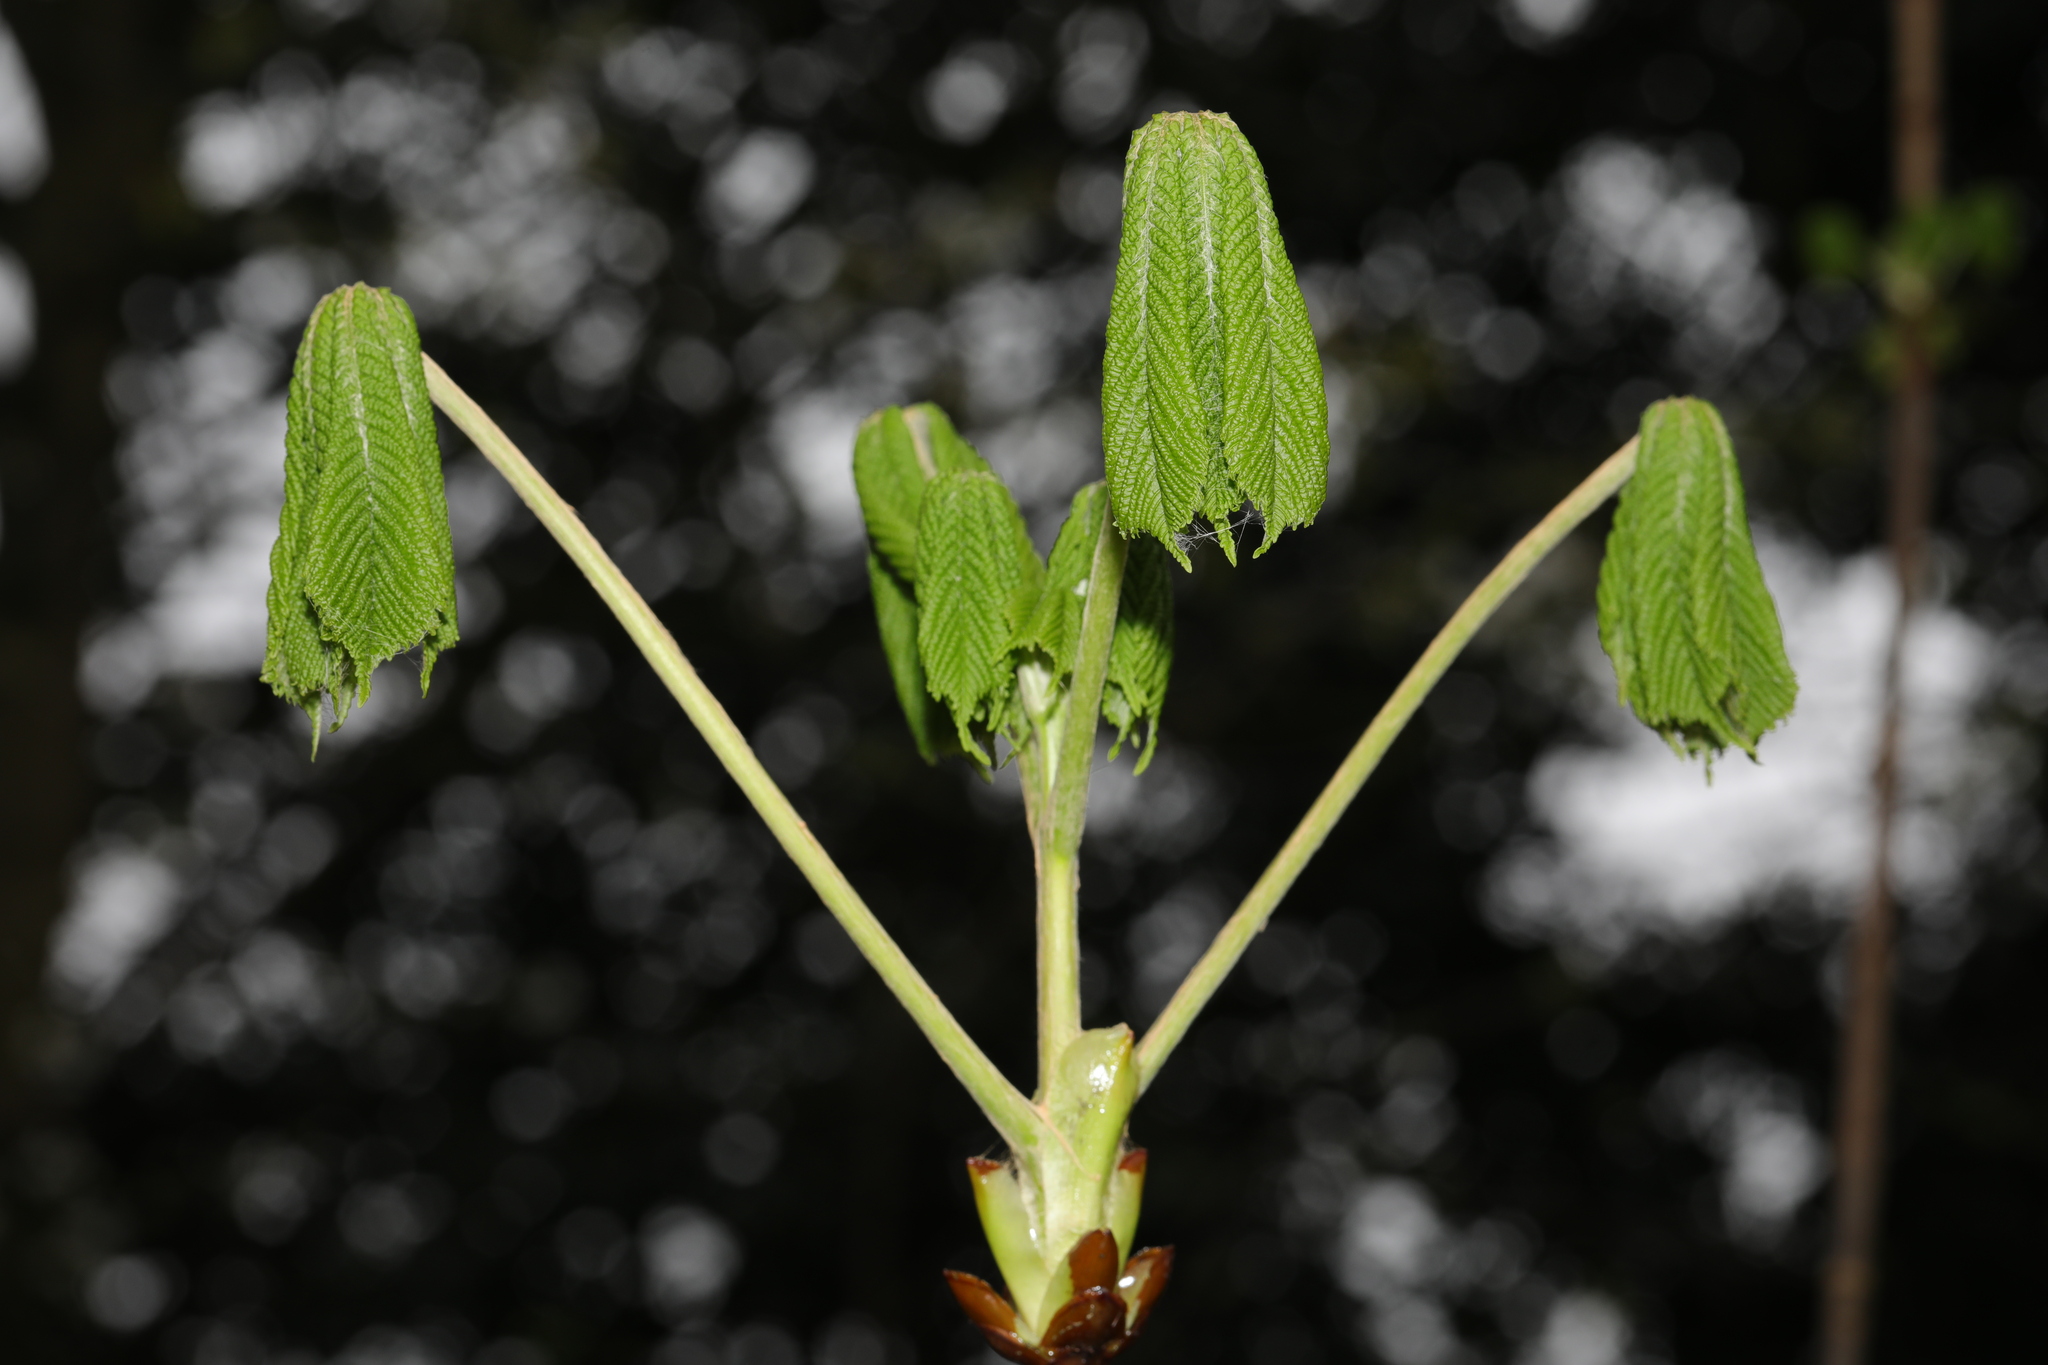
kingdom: Plantae
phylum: Tracheophyta
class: Magnoliopsida
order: Sapindales
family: Sapindaceae
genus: Aesculus
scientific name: Aesculus hippocastanum
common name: Horse-chestnut
